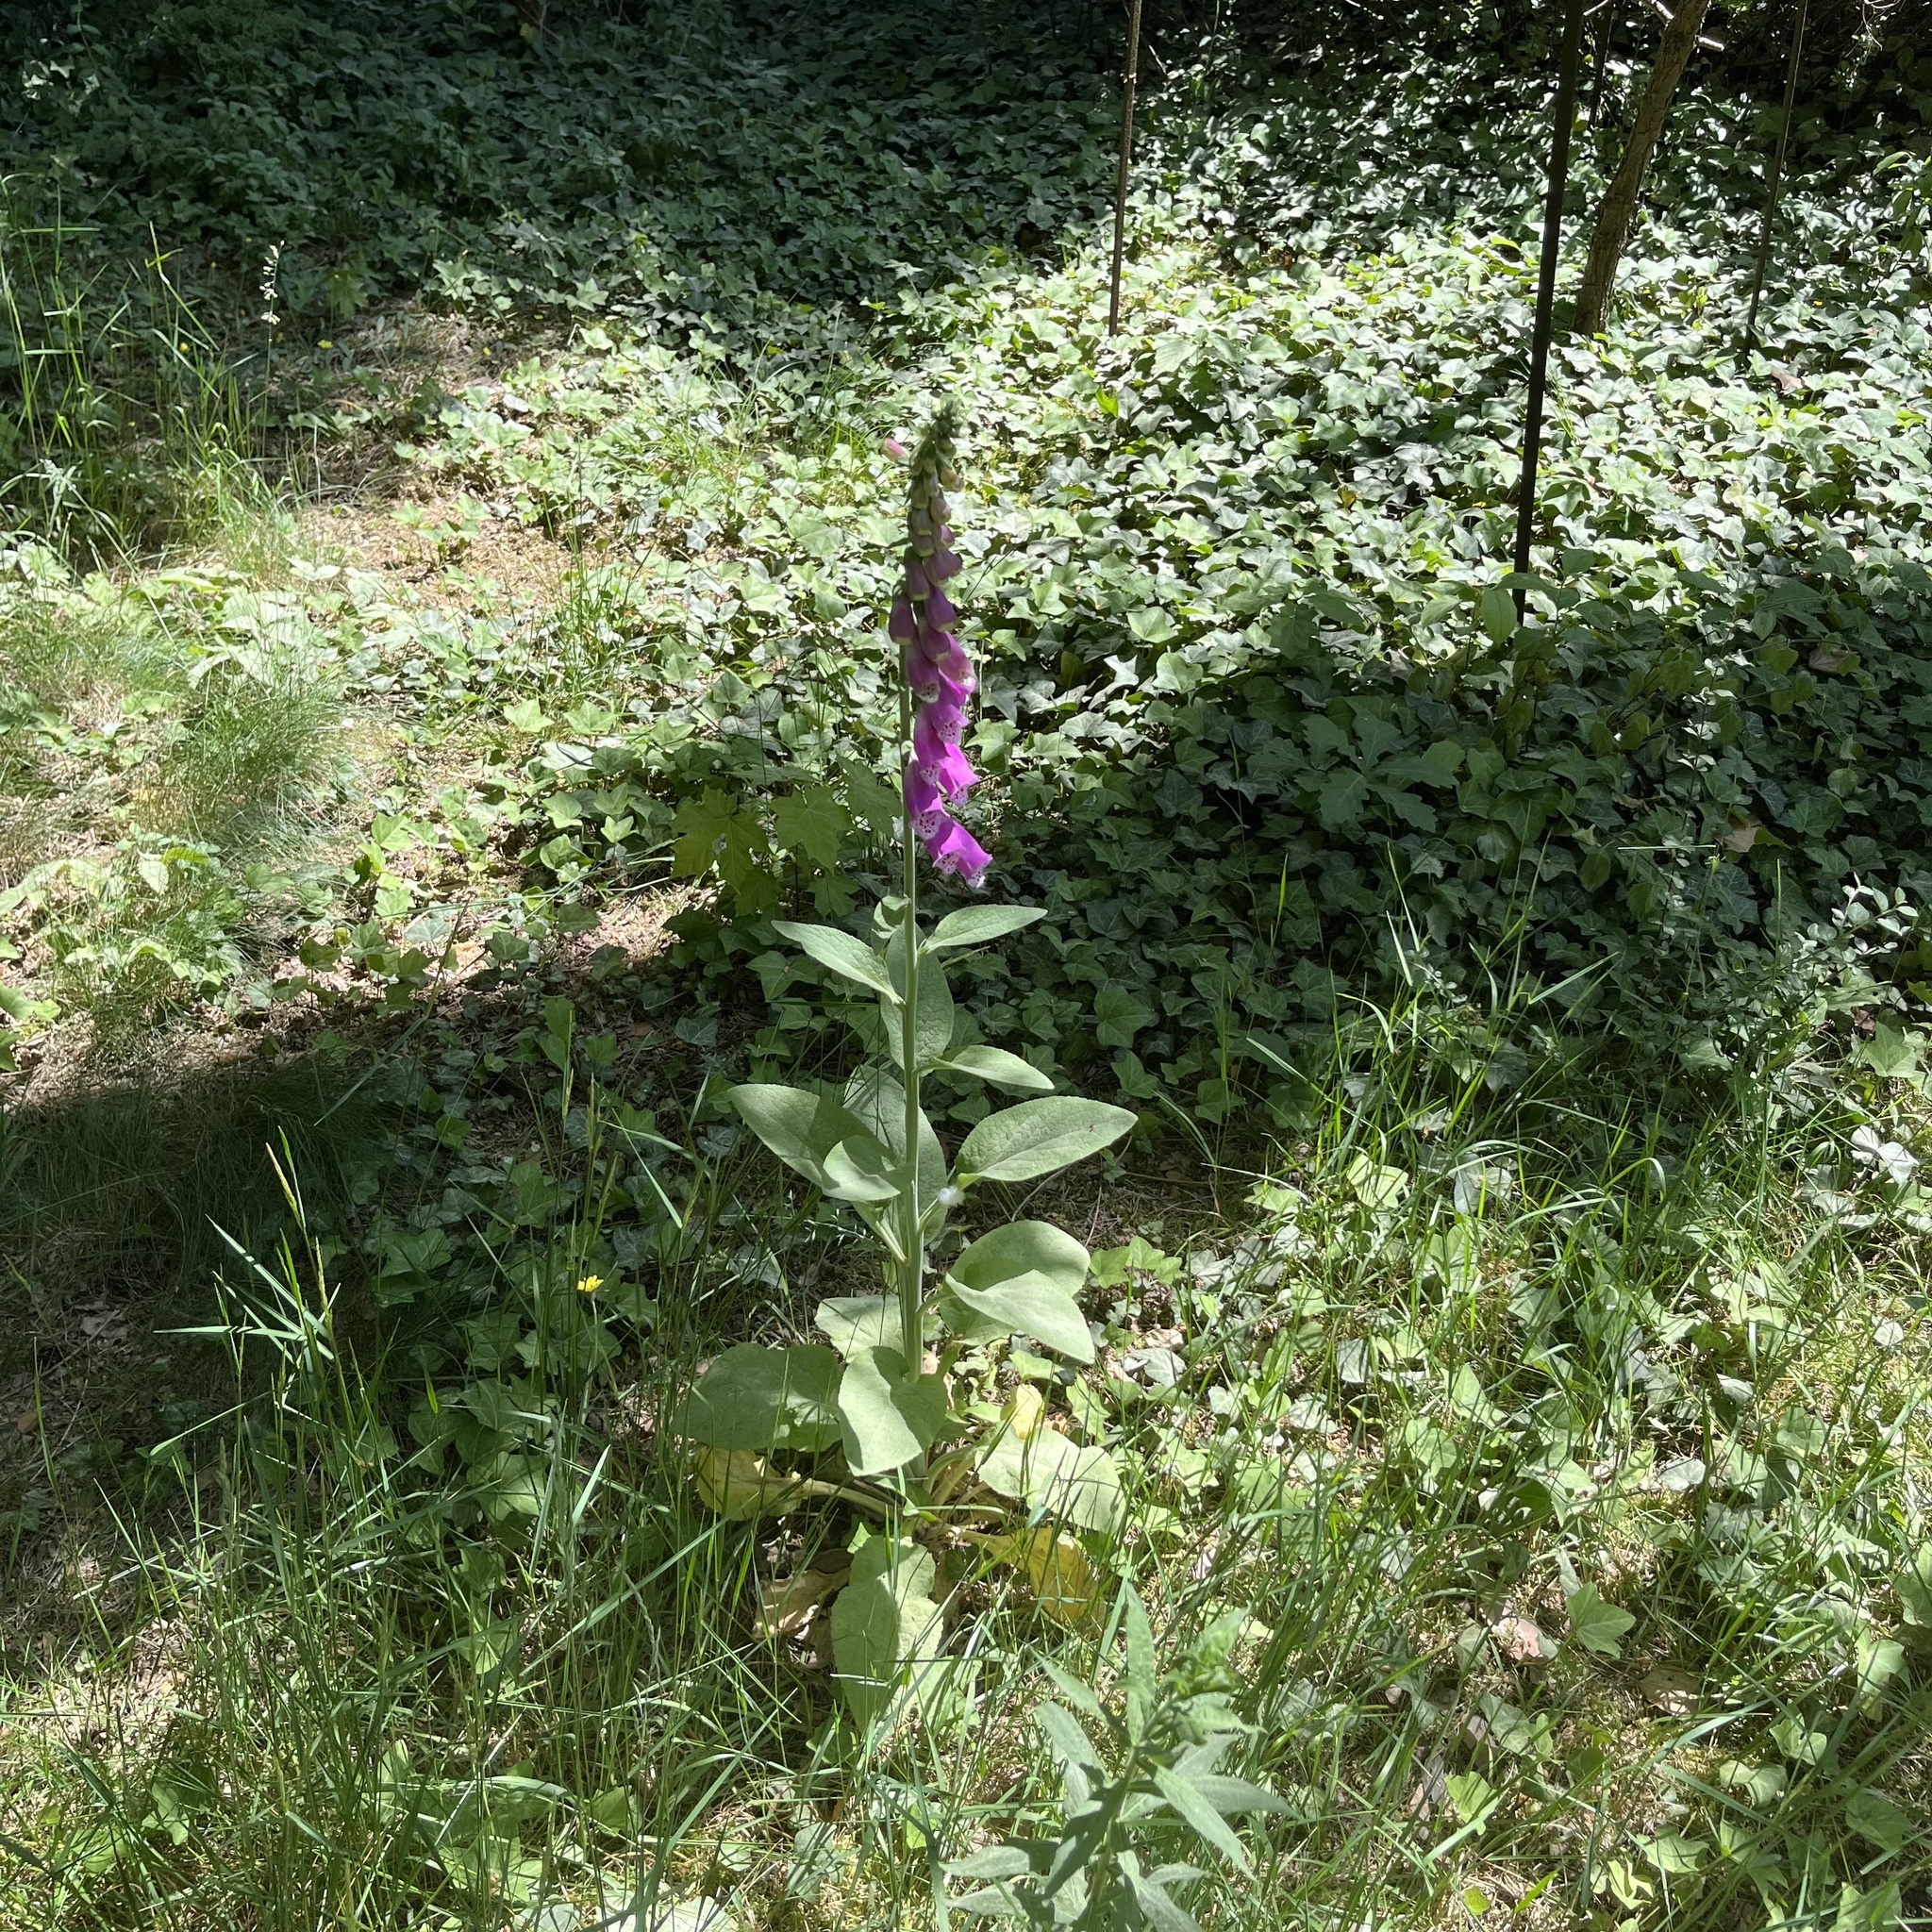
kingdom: Plantae
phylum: Tracheophyta
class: Magnoliopsida
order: Lamiales
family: Plantaginaceae
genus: Digitalis
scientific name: Digitalis purpurea
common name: Foxglove
